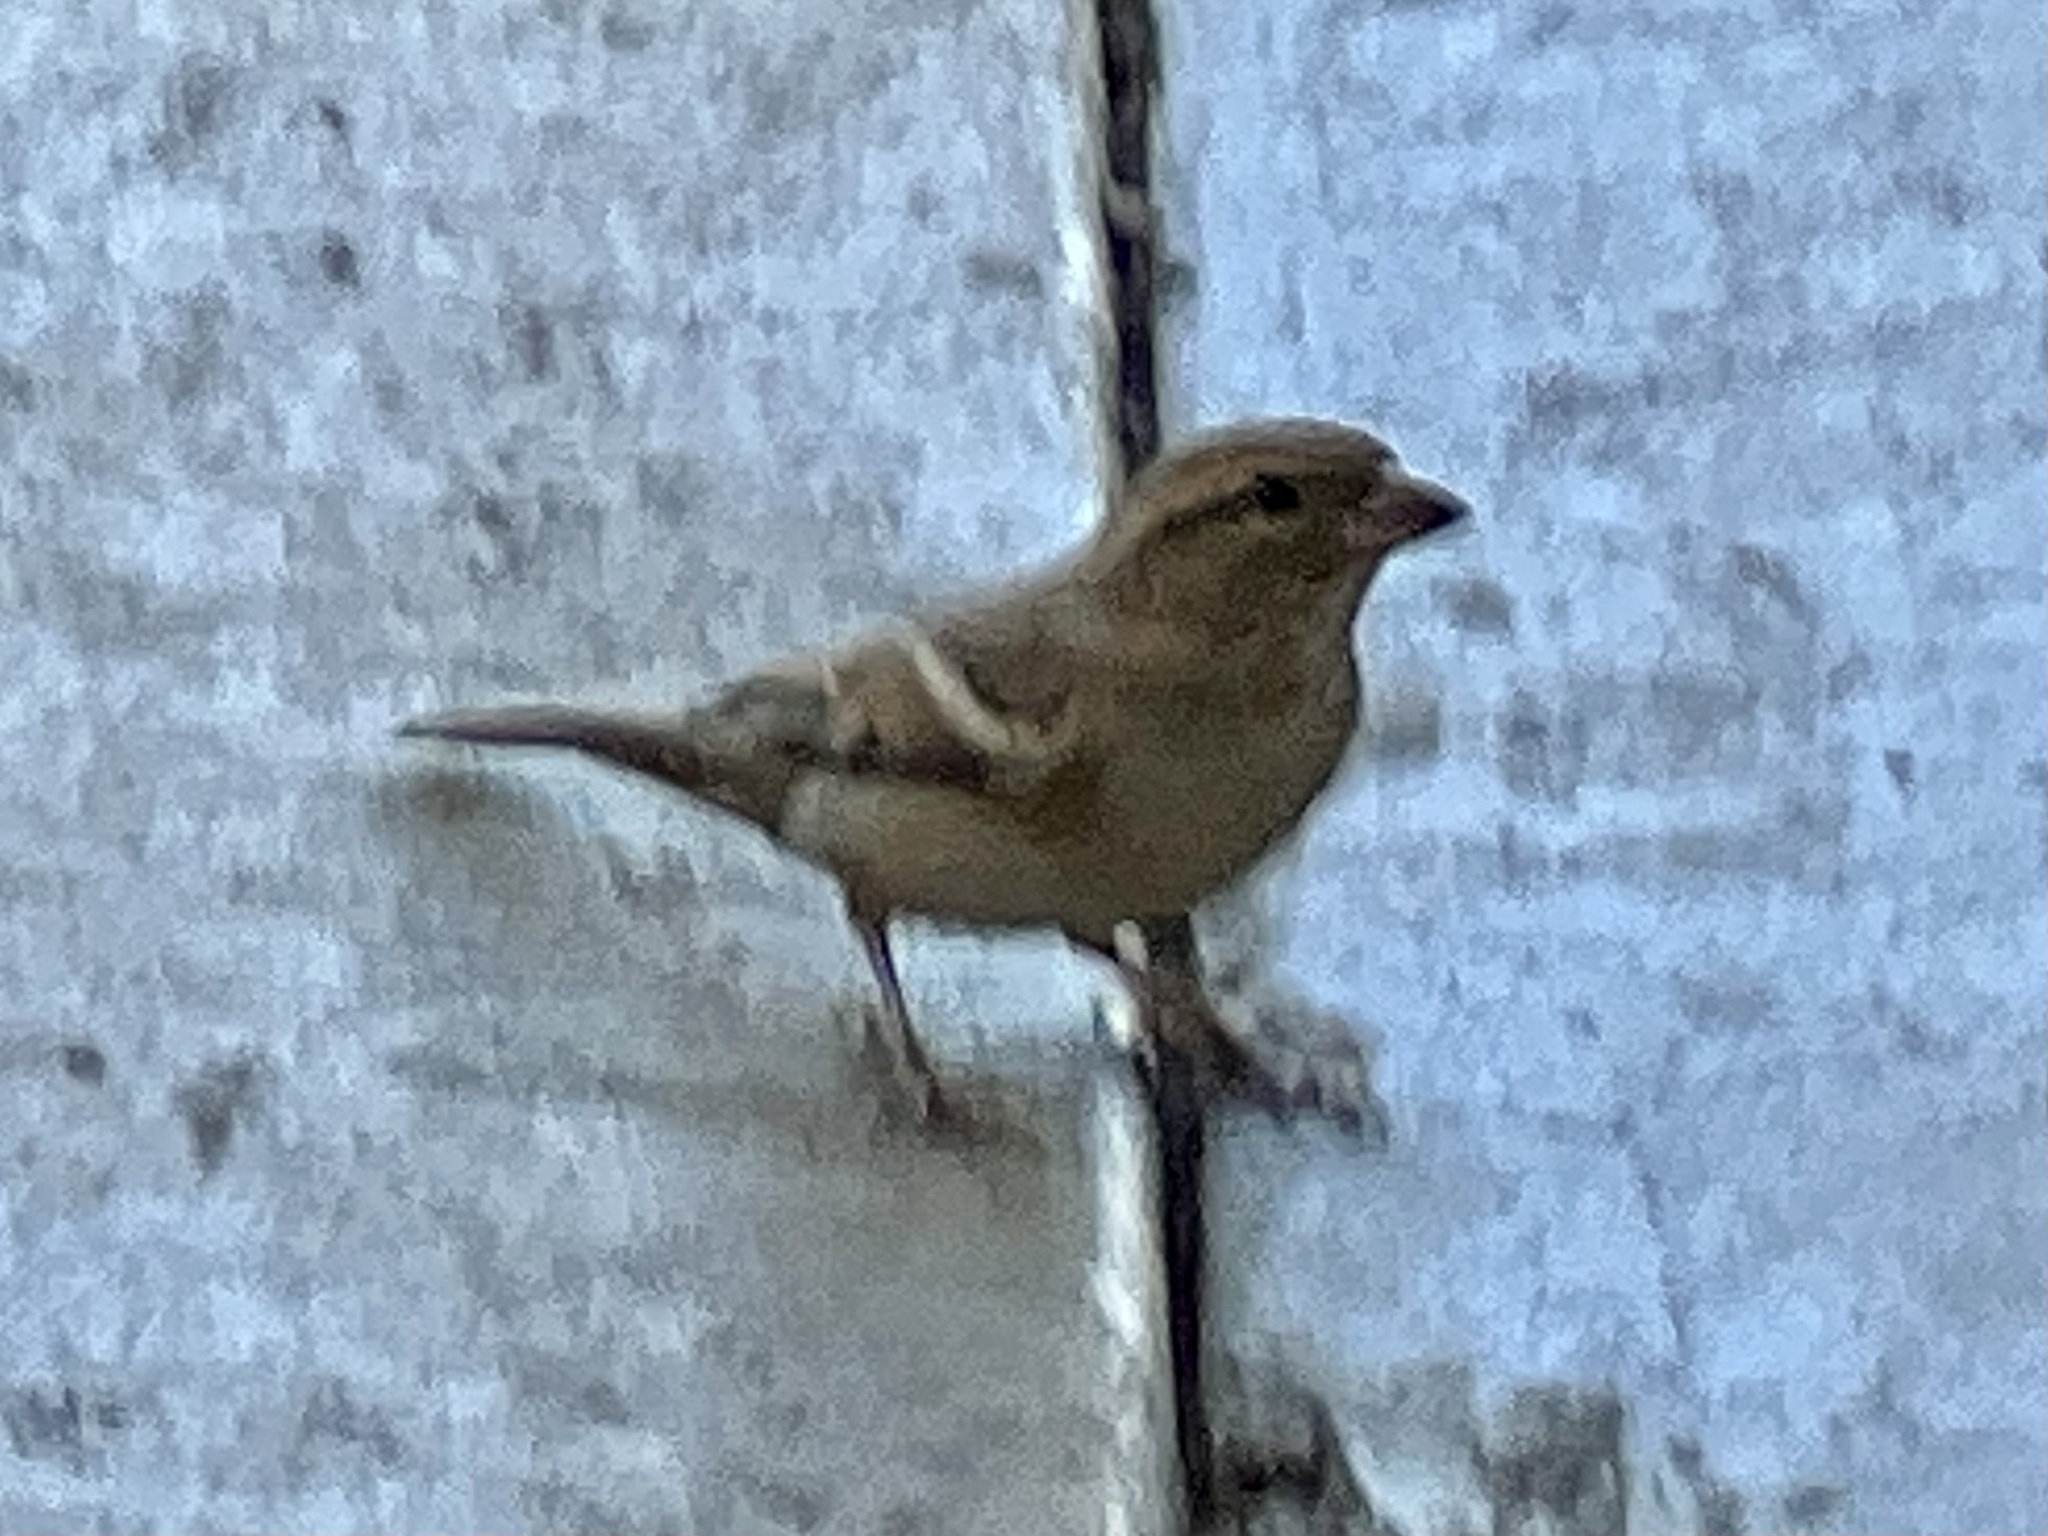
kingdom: Animalia
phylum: Chordata
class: Aves
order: Passeriformes
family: Passeridae
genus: Passer
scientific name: Passer domesticus
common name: House sparrow
